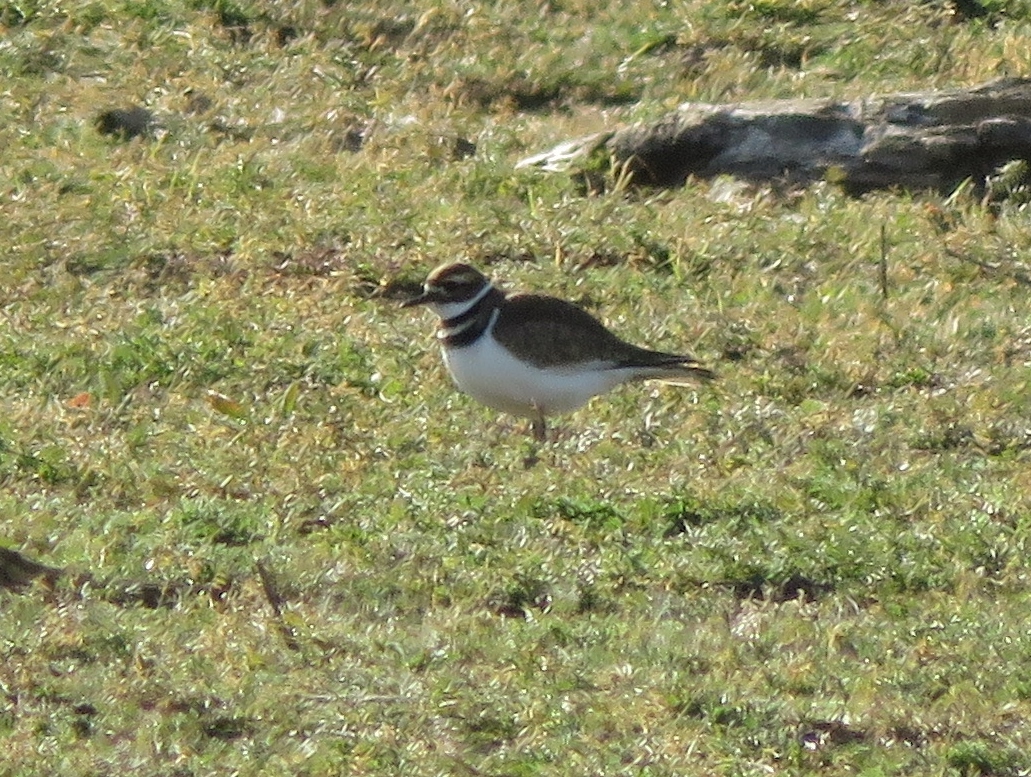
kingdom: Animalia
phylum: Chordata
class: Aves
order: Charadriiformes
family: Charadriidae
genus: Charadrius
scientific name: Charadrius vociferus
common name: Killdeer
